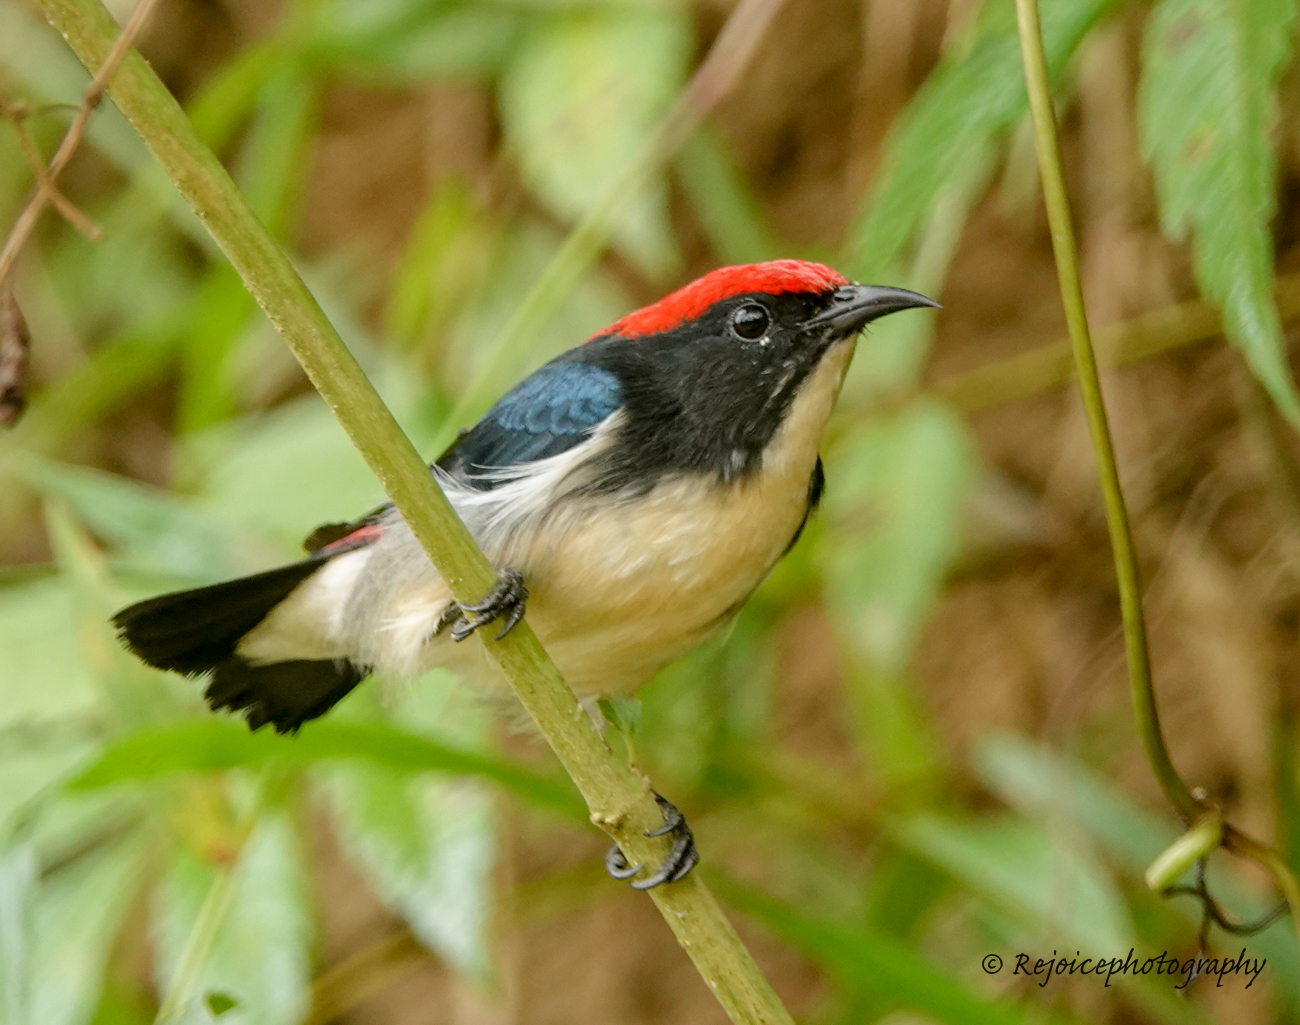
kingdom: Animalia
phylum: Chordata
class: Aves
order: Passeriformes
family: Dicaeidae
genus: Dicaeum
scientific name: Dicaeum cruentatum
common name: Scarlet-backed flowerpecker
